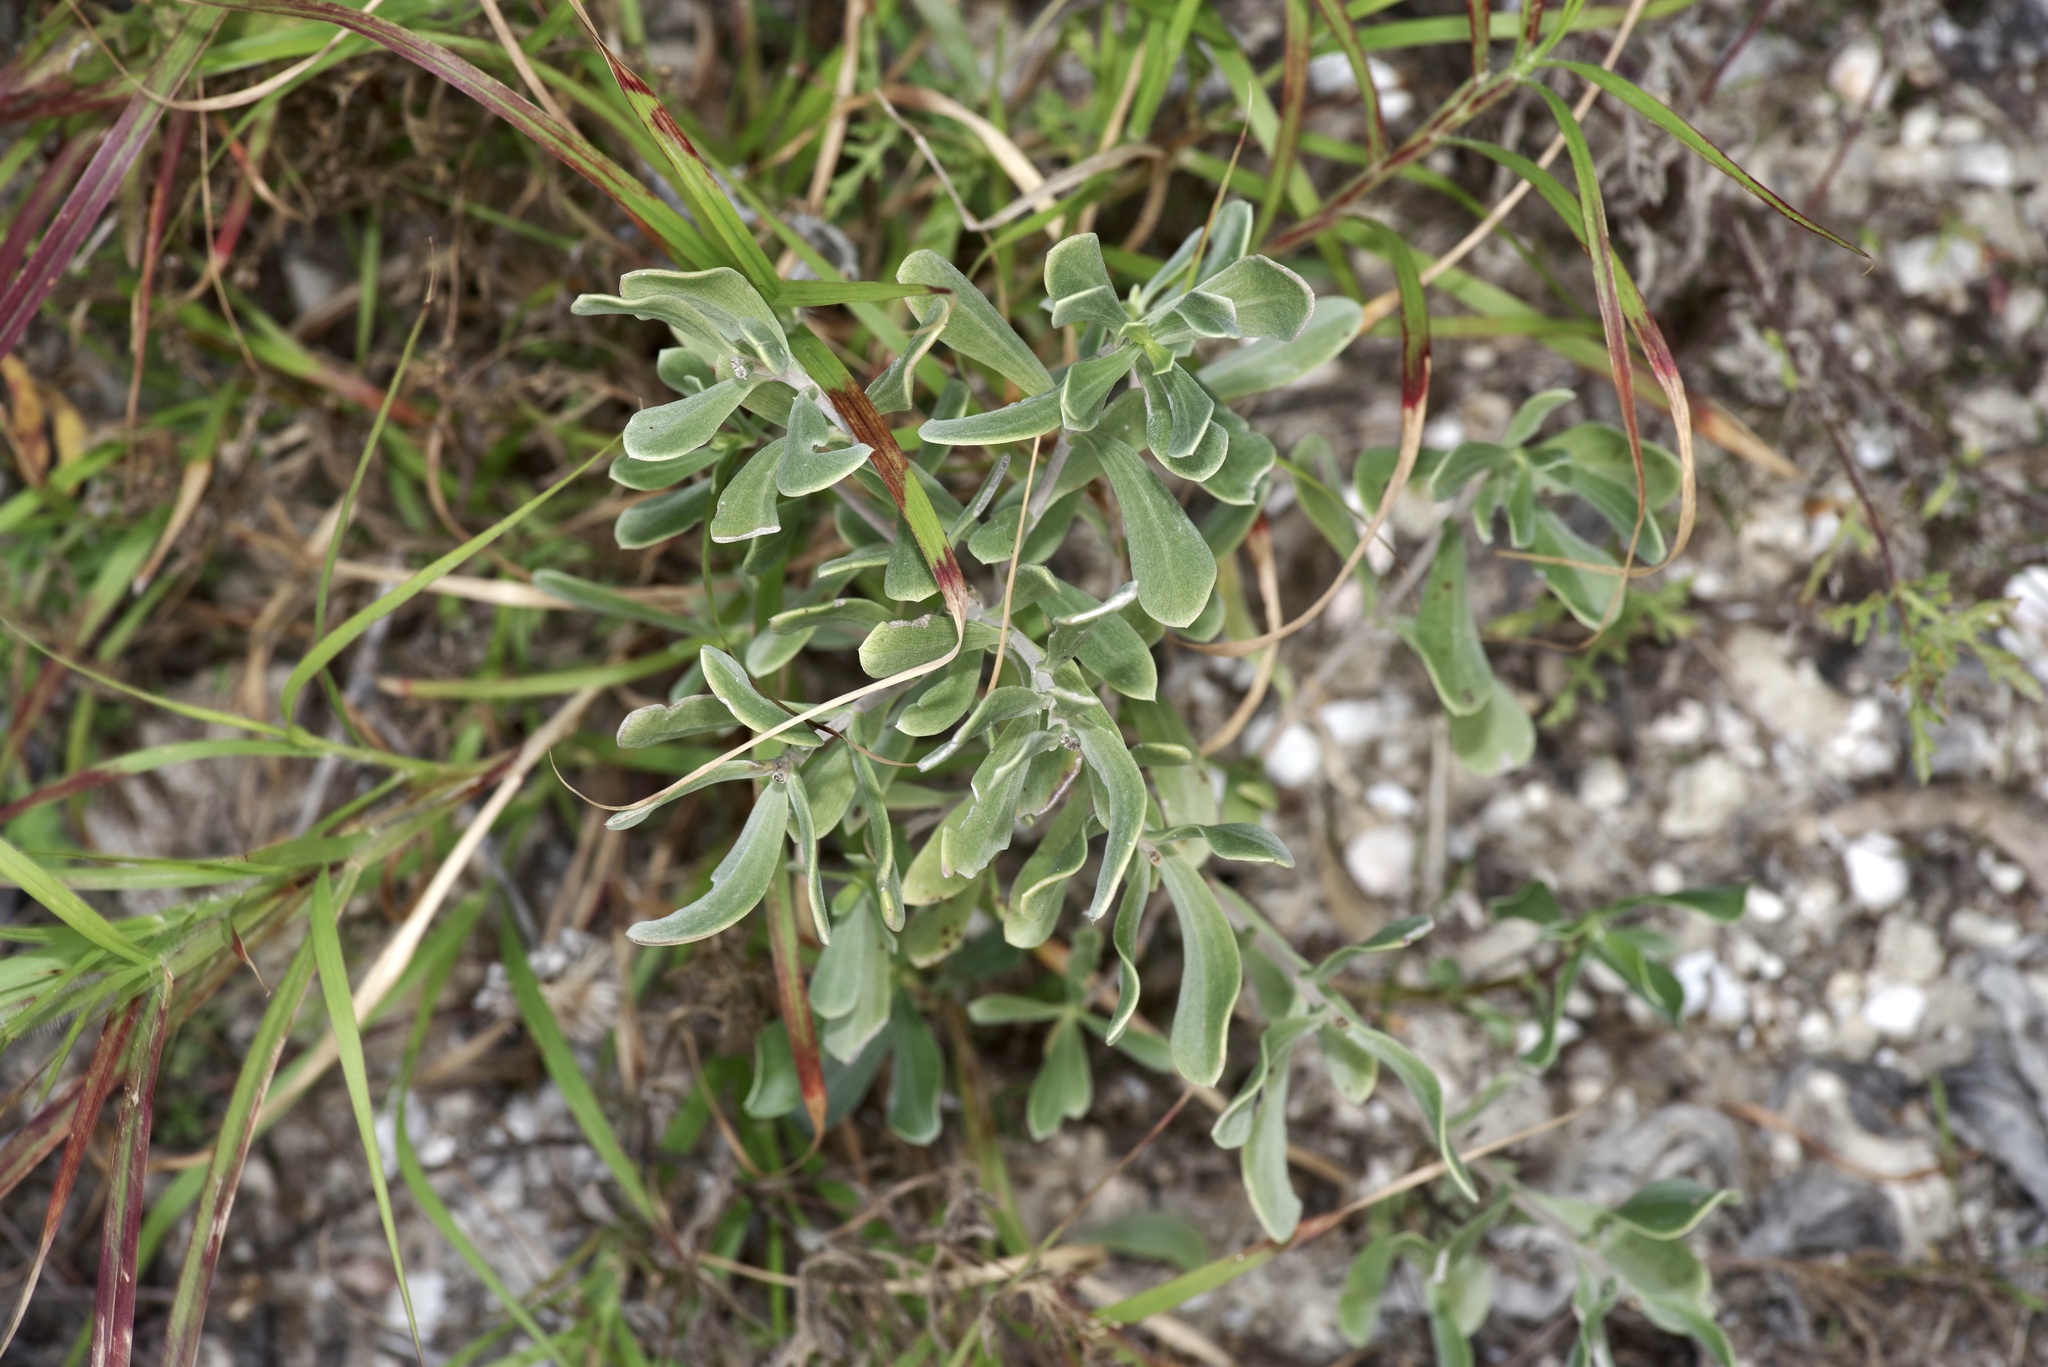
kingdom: Plantae
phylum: Tracheophyta
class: Magnoliopsida
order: Asterales
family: Asteraceae
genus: Borrichia
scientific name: Borrichia frutescens
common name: Sea oxeye
